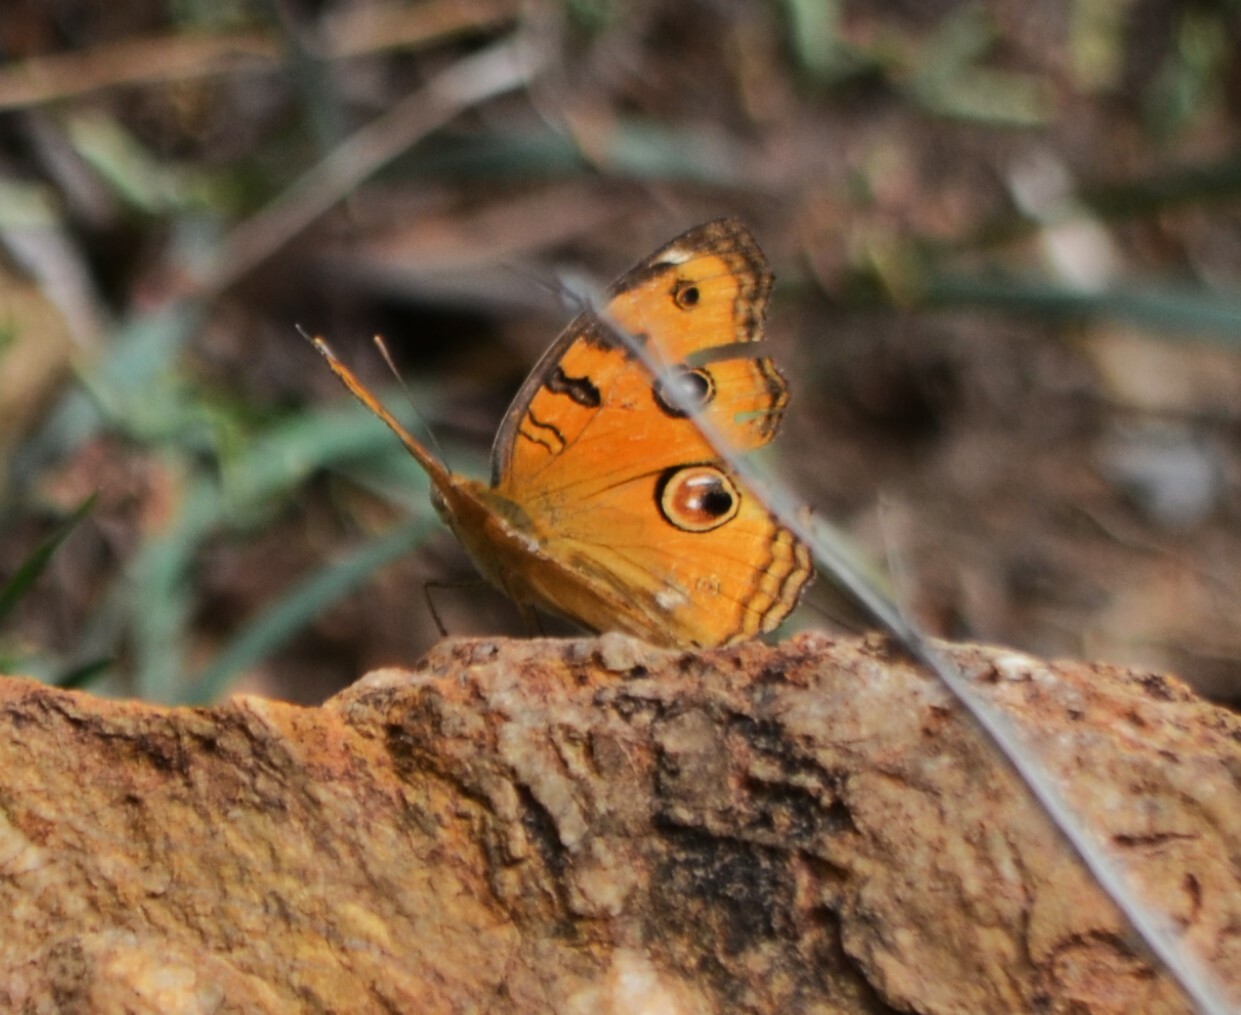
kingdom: Animalia
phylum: Arthropoda
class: Insecta
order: Lepidoptera
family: Nymphalidae
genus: Junonia
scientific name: Junonia almana
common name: Peacock pansy
